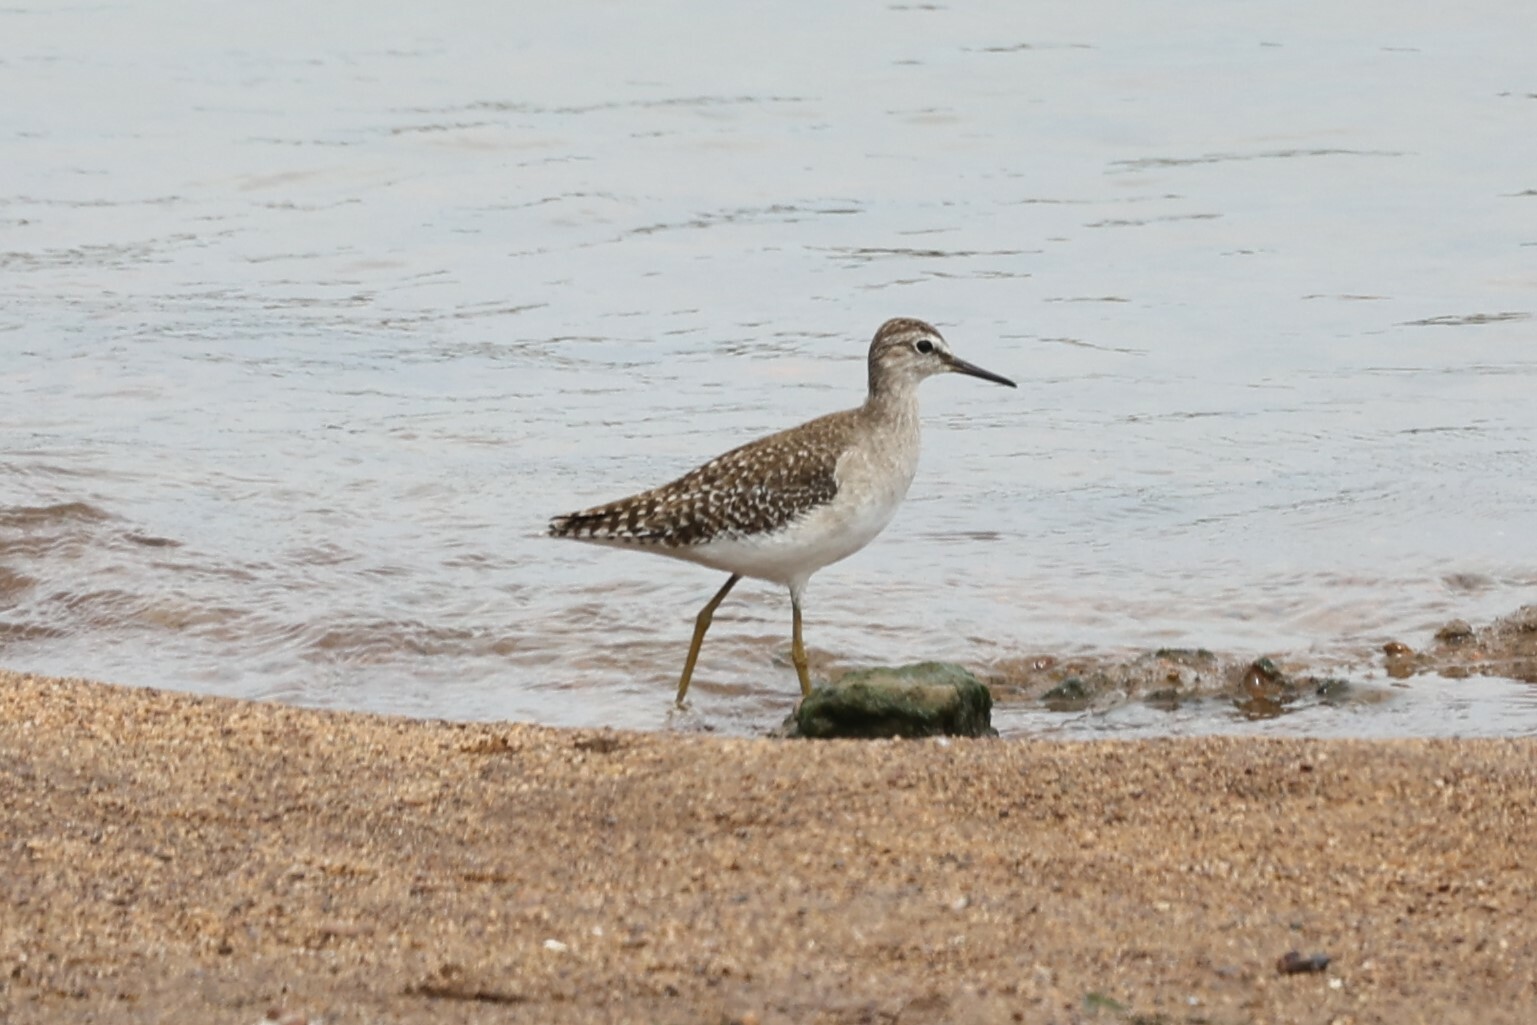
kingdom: Animalia
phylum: Chordata
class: Aves
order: Charadriiformes
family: Scolopacidae
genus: Tringa
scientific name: Tringa glareola
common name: Wood sandpiper
